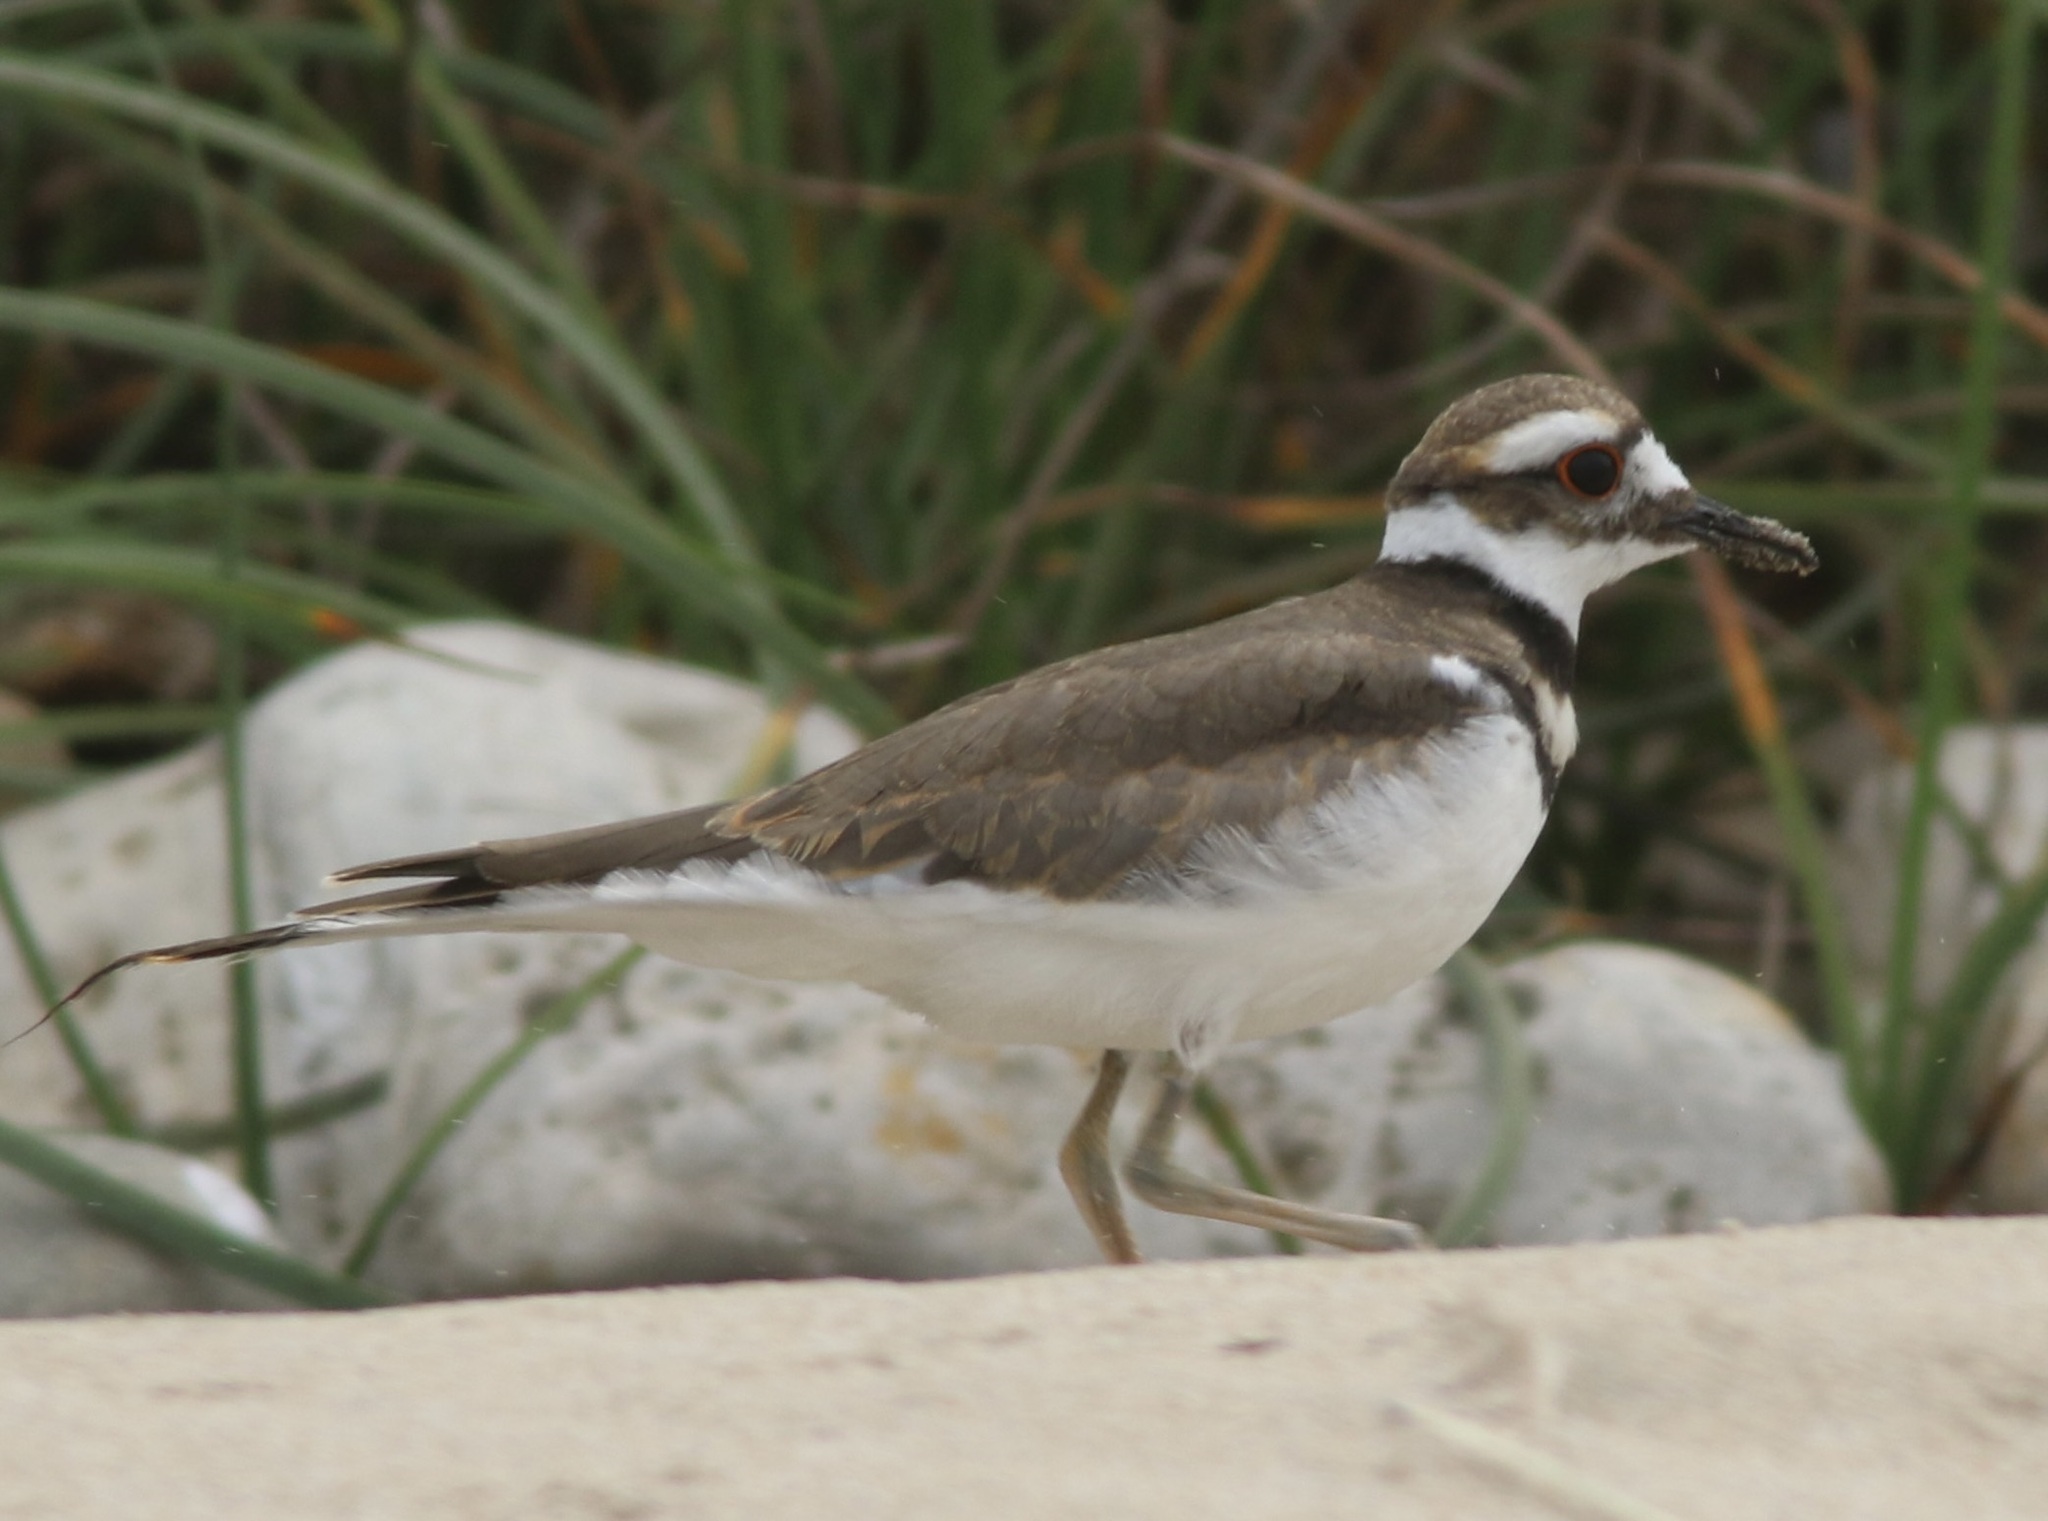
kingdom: Animalia
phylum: Chordata
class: Aves
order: Charadriiformes
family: Charadriidae
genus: Charadrius
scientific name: Charadrius vociferus
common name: Killdeer
